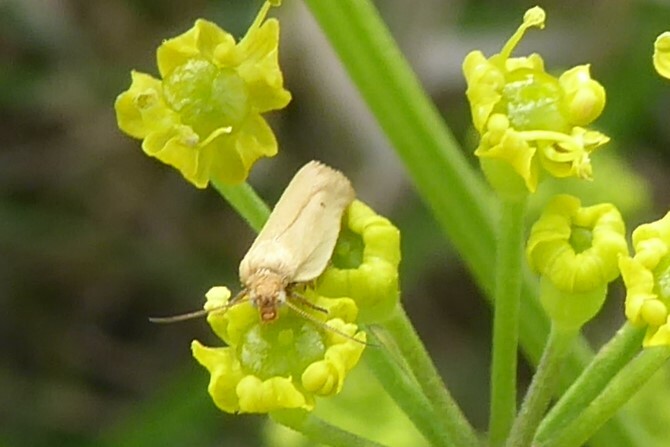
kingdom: Animalia
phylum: Arthropoda
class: Insecta
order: Lepidoptera
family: Tortricidae
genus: Epichorista
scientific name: Epichorista siriana
